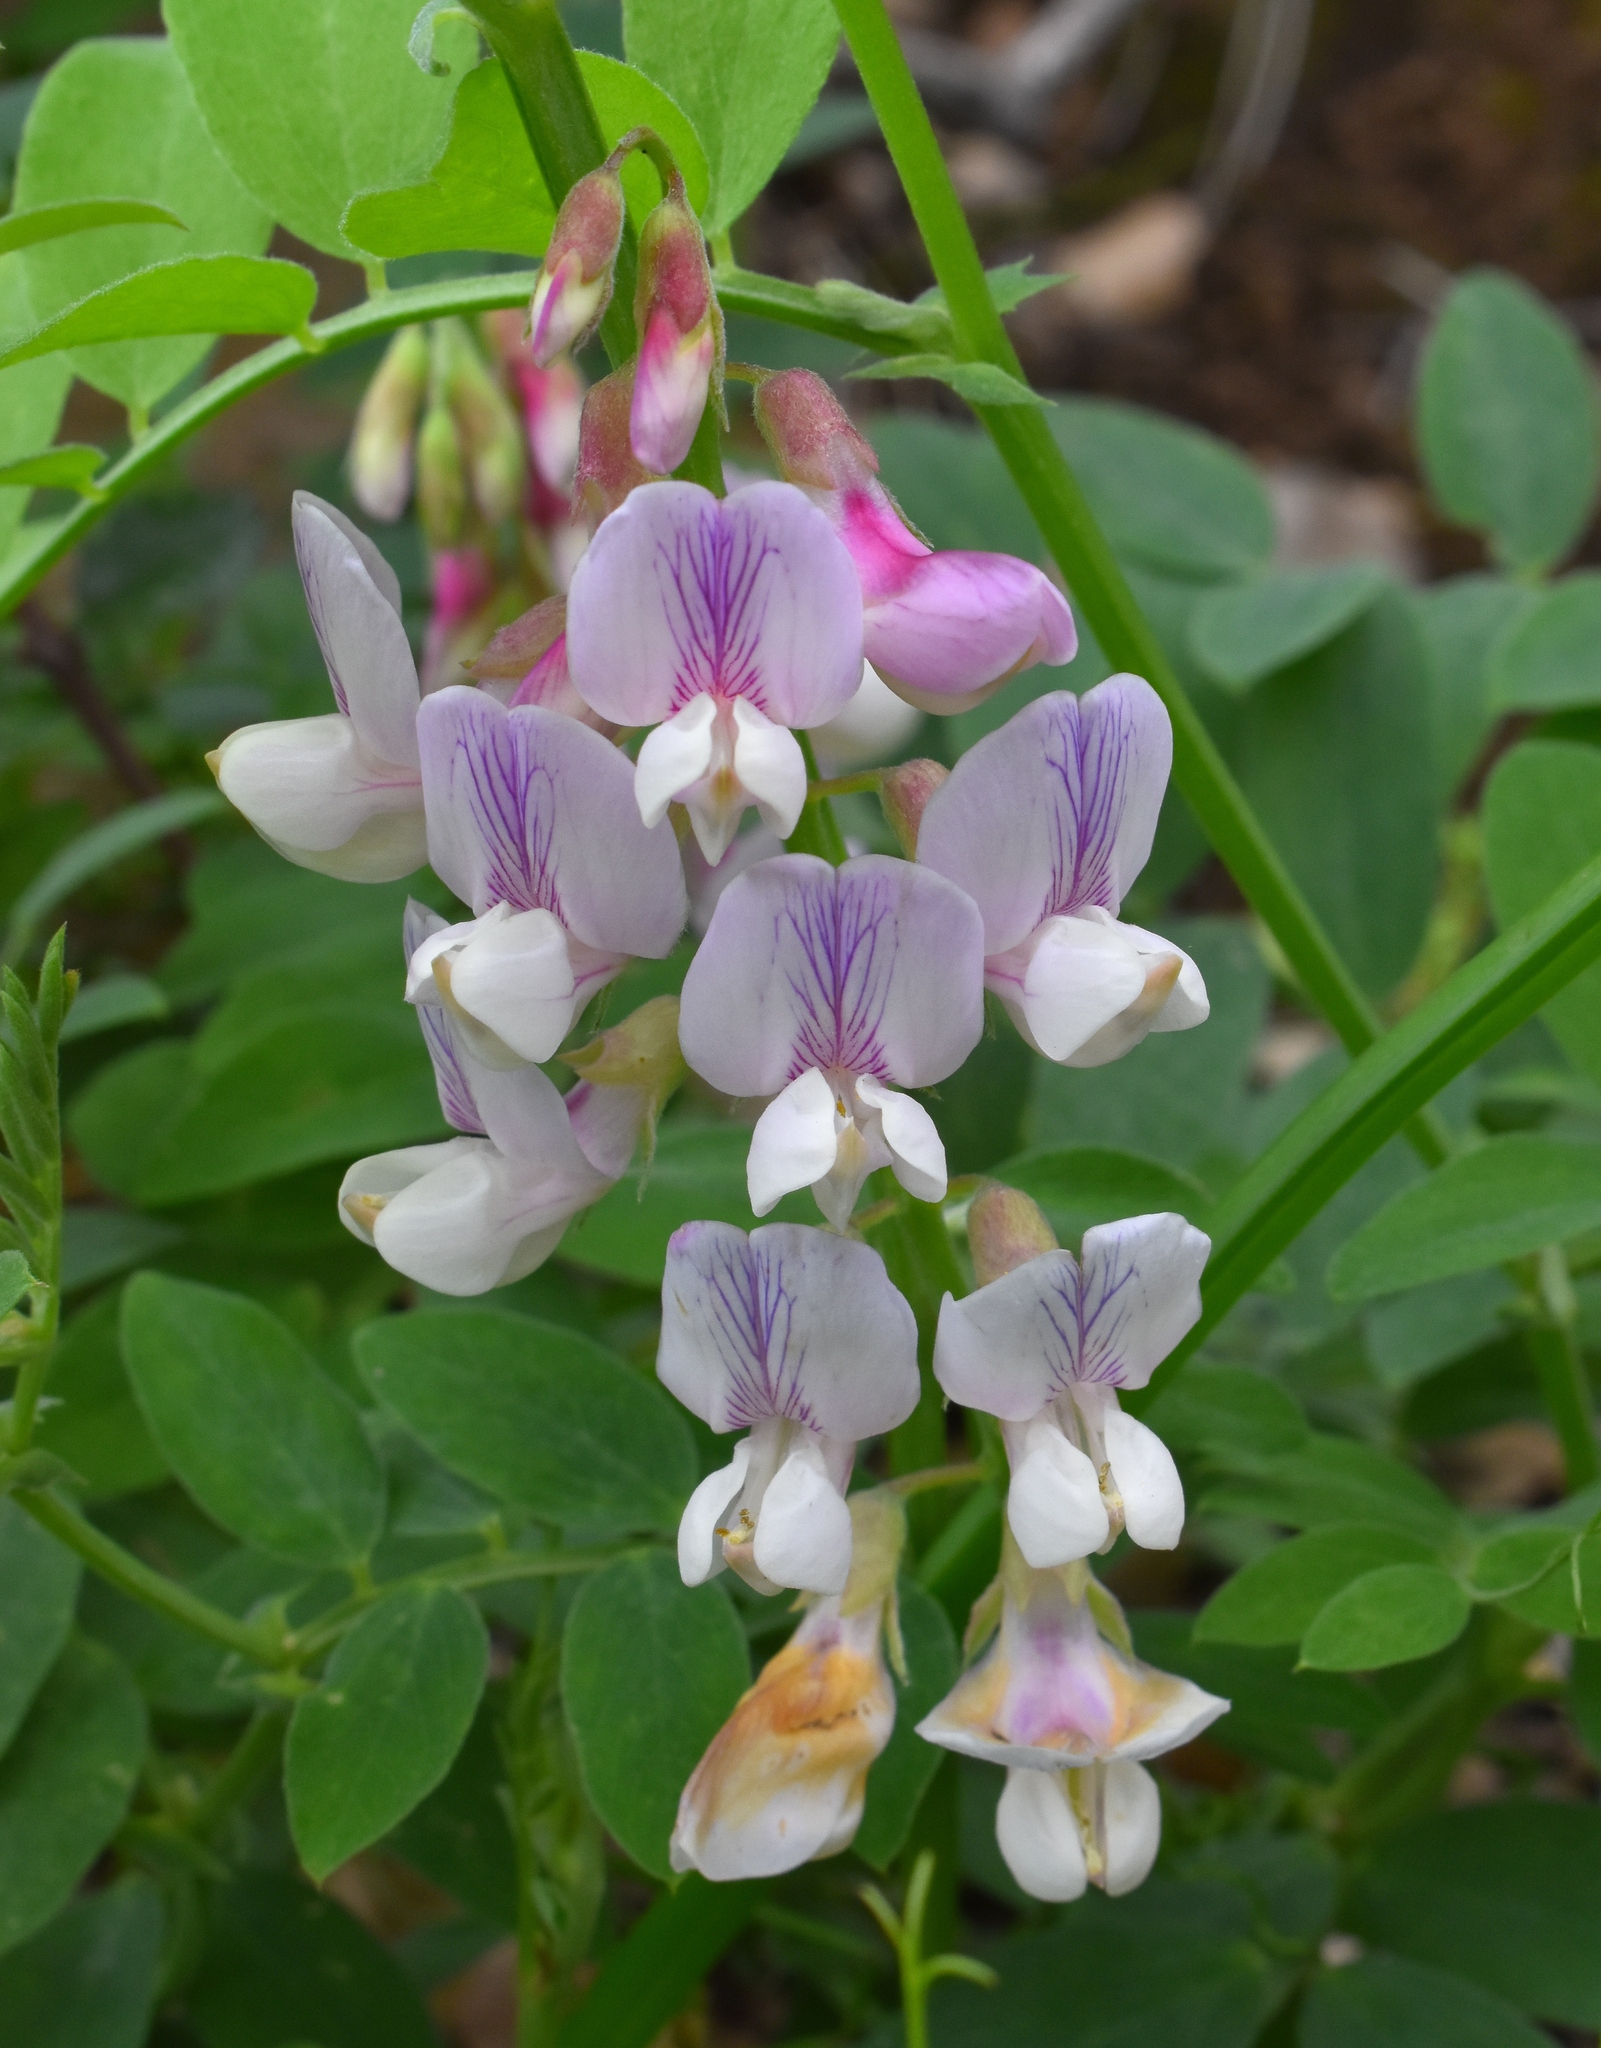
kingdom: Plantae
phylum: Tracheophyta
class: Magnoliopsida
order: Fabales
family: Fabaceae
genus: Lathyrus
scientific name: Lathyrus vestitus
